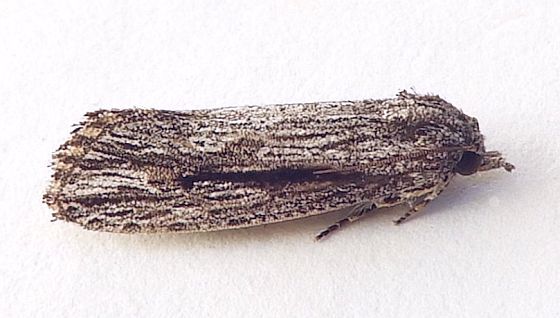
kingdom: Animalia
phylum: Arthropoda
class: Insecta
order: Lepidoptera
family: Tineidae
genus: Acrolophus
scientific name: Acrolophus furcatus
